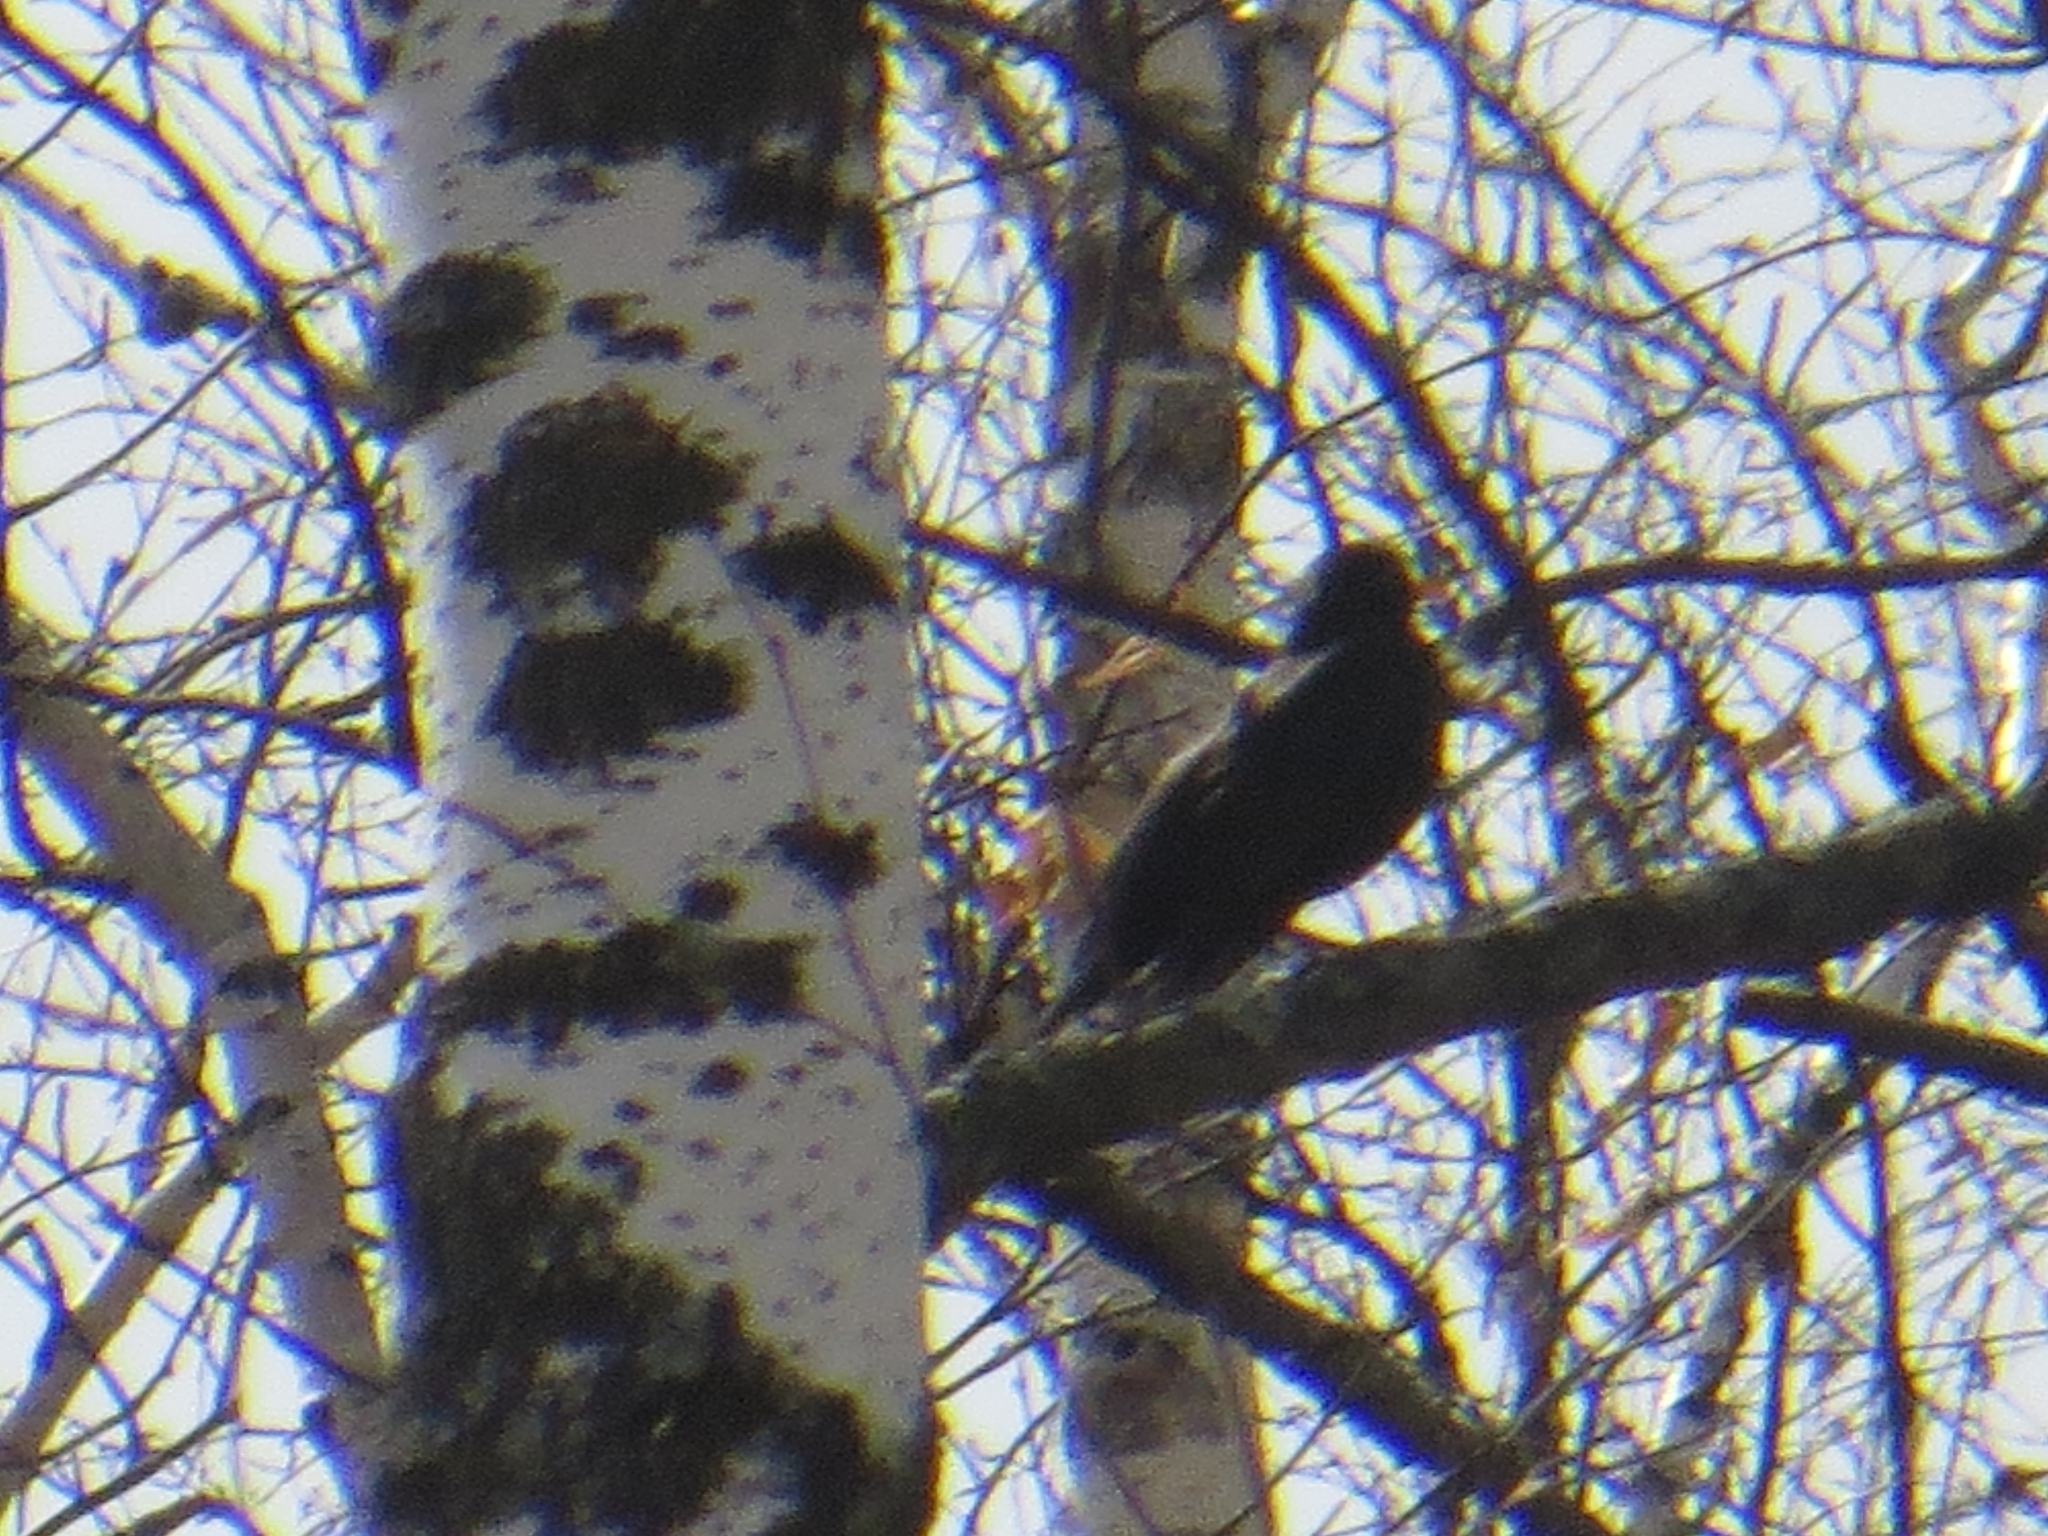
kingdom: Animalia
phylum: Chordata
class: Aves
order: Passeriformes
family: Turdidae
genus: Turdus
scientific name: Turdus merula
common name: Common blackbird
